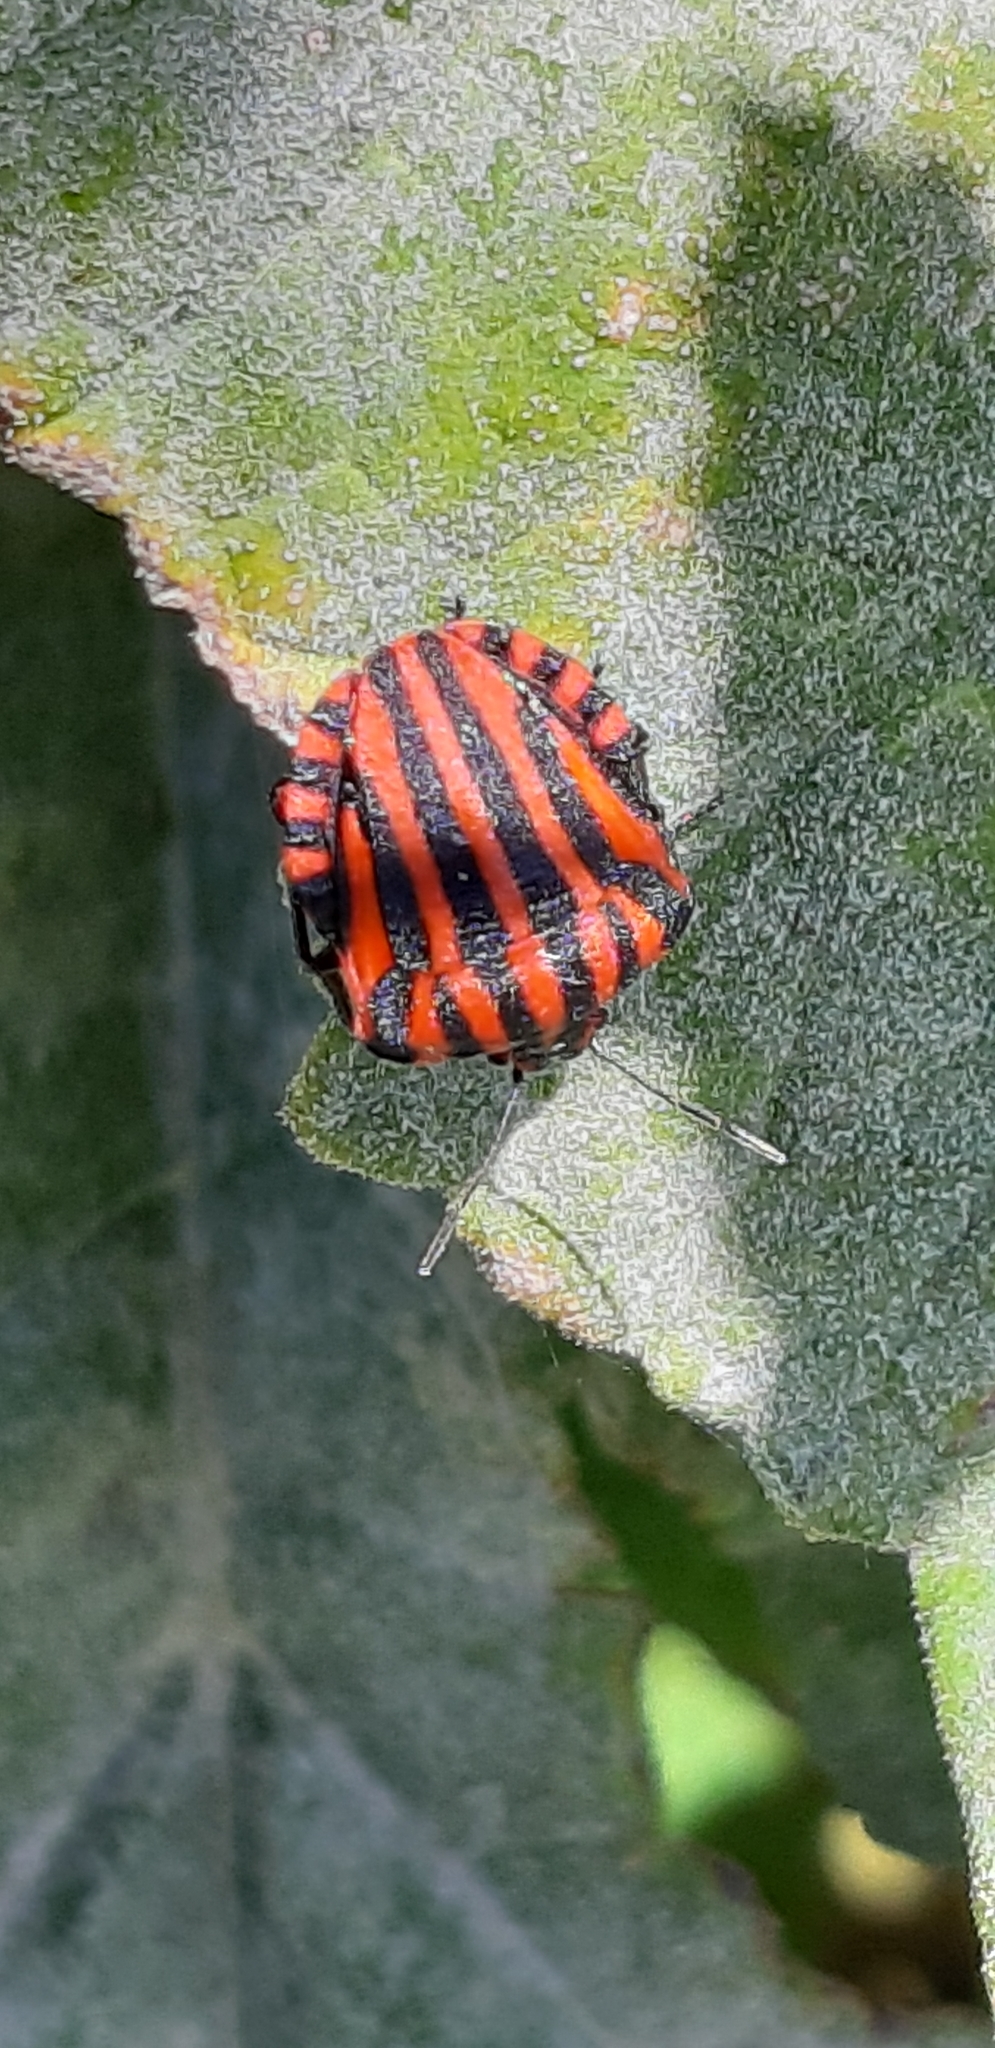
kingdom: Animalia
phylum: Arthropoda
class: Insecta
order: Hemiptera
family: Pentatomidae
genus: Graphosoma
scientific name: Graphosoma italicum
